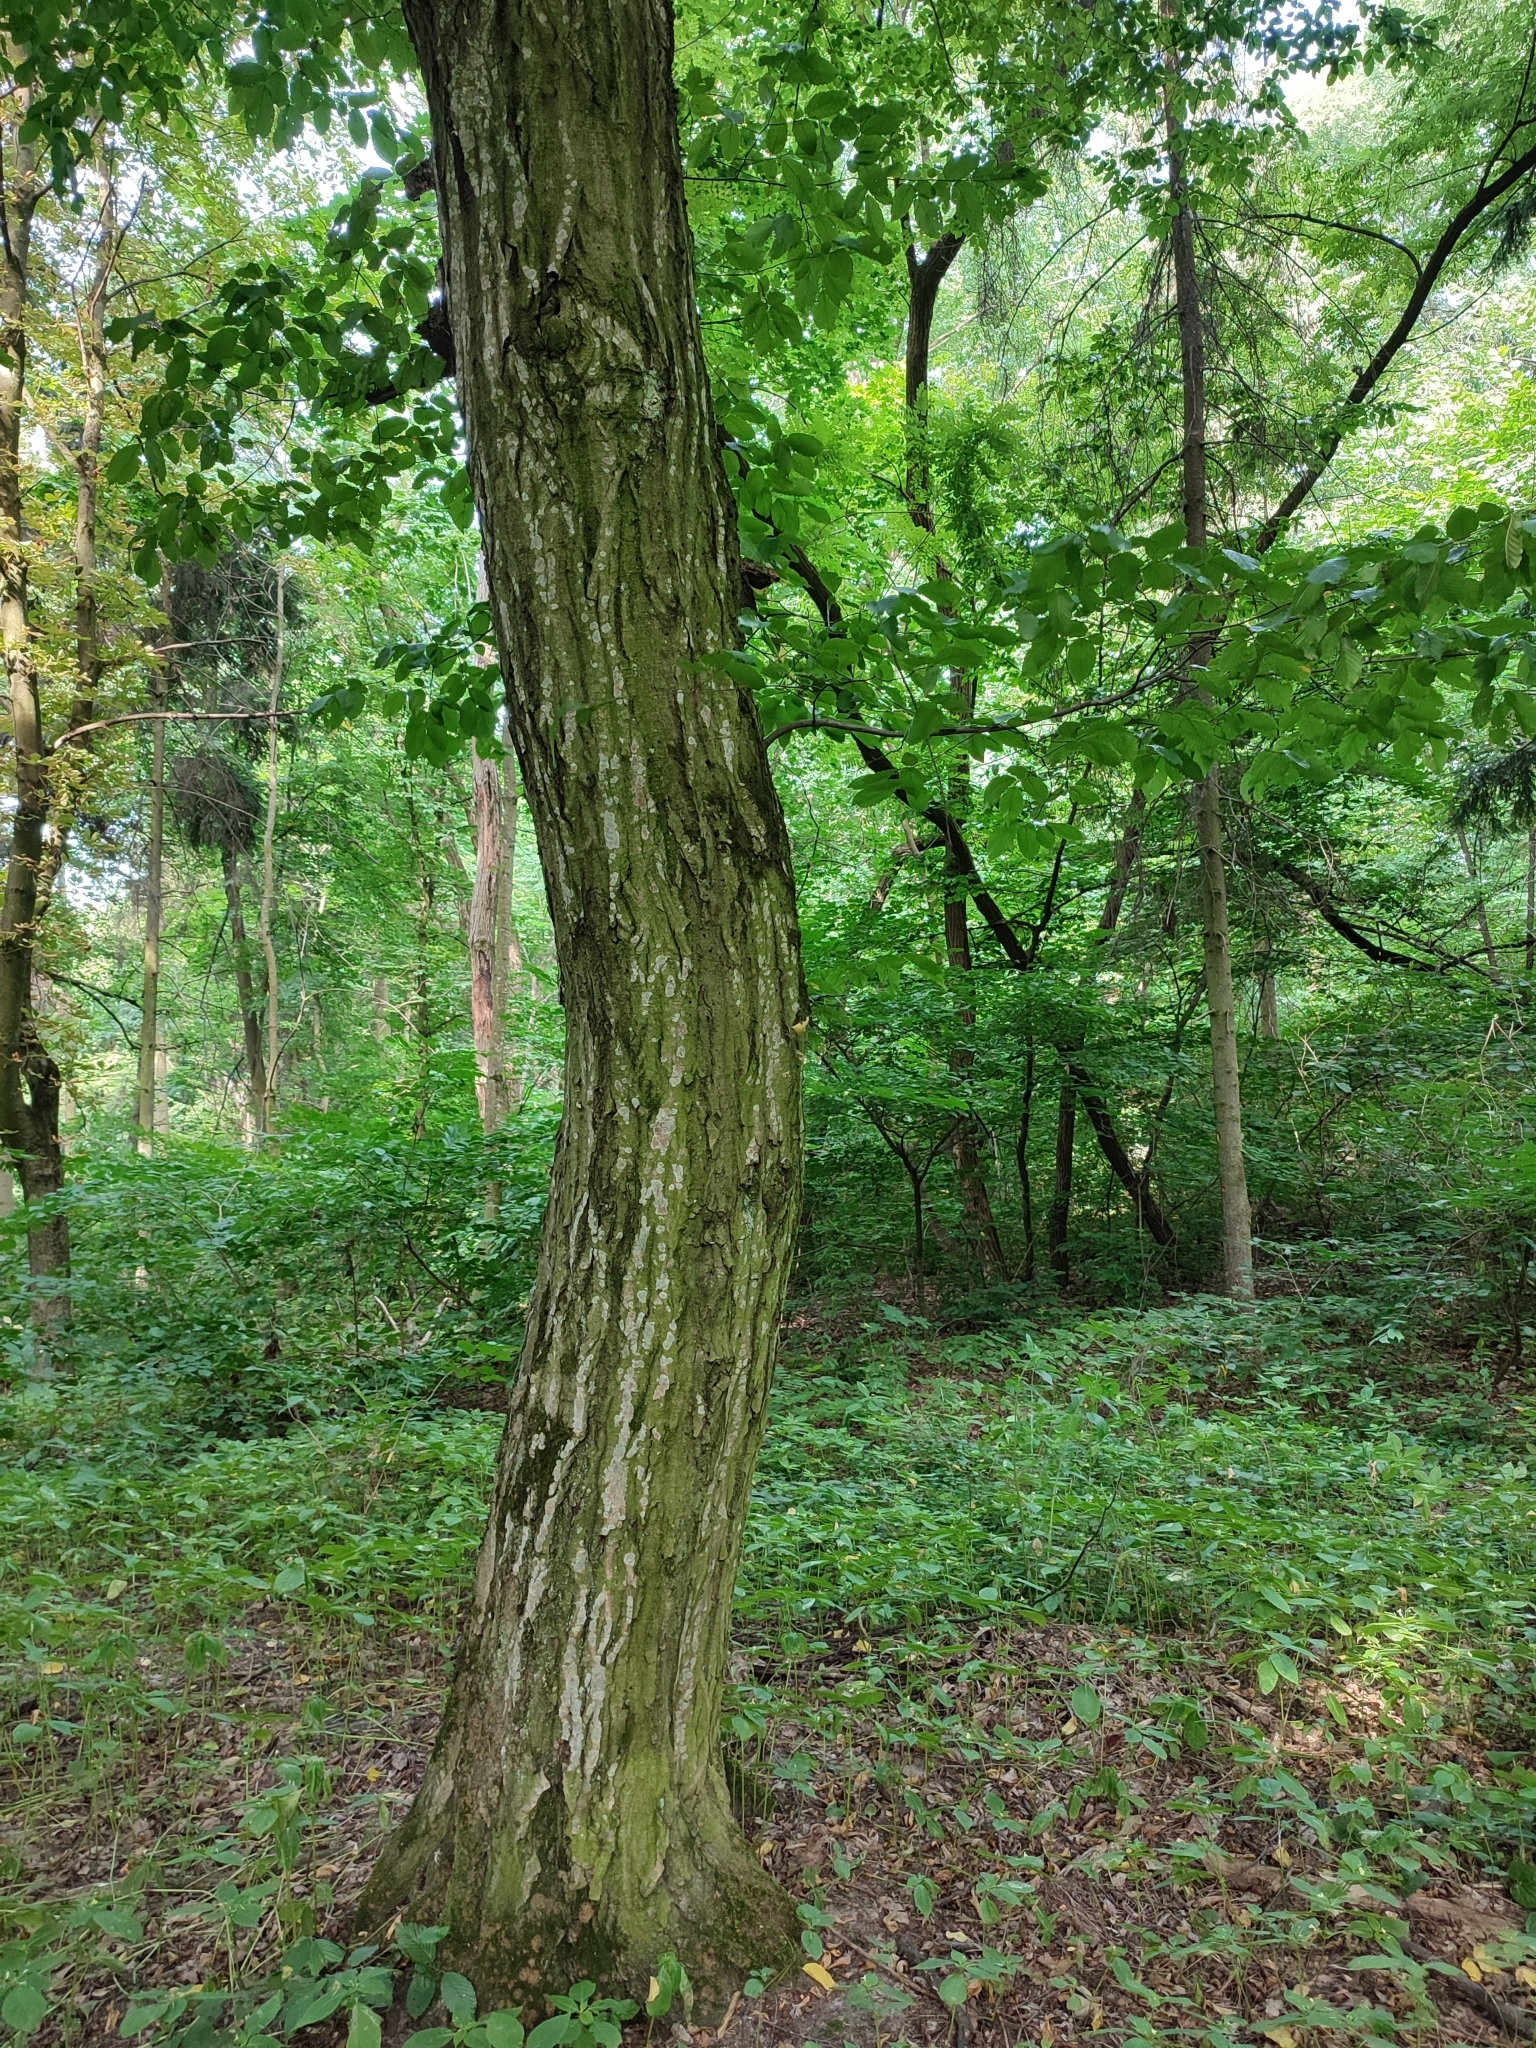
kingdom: Plantae
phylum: Tracheophyta
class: Magnoliopsida
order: Fagales
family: Betulaceae
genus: Carpinus
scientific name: Carpinus betulus
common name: Hornbeam
